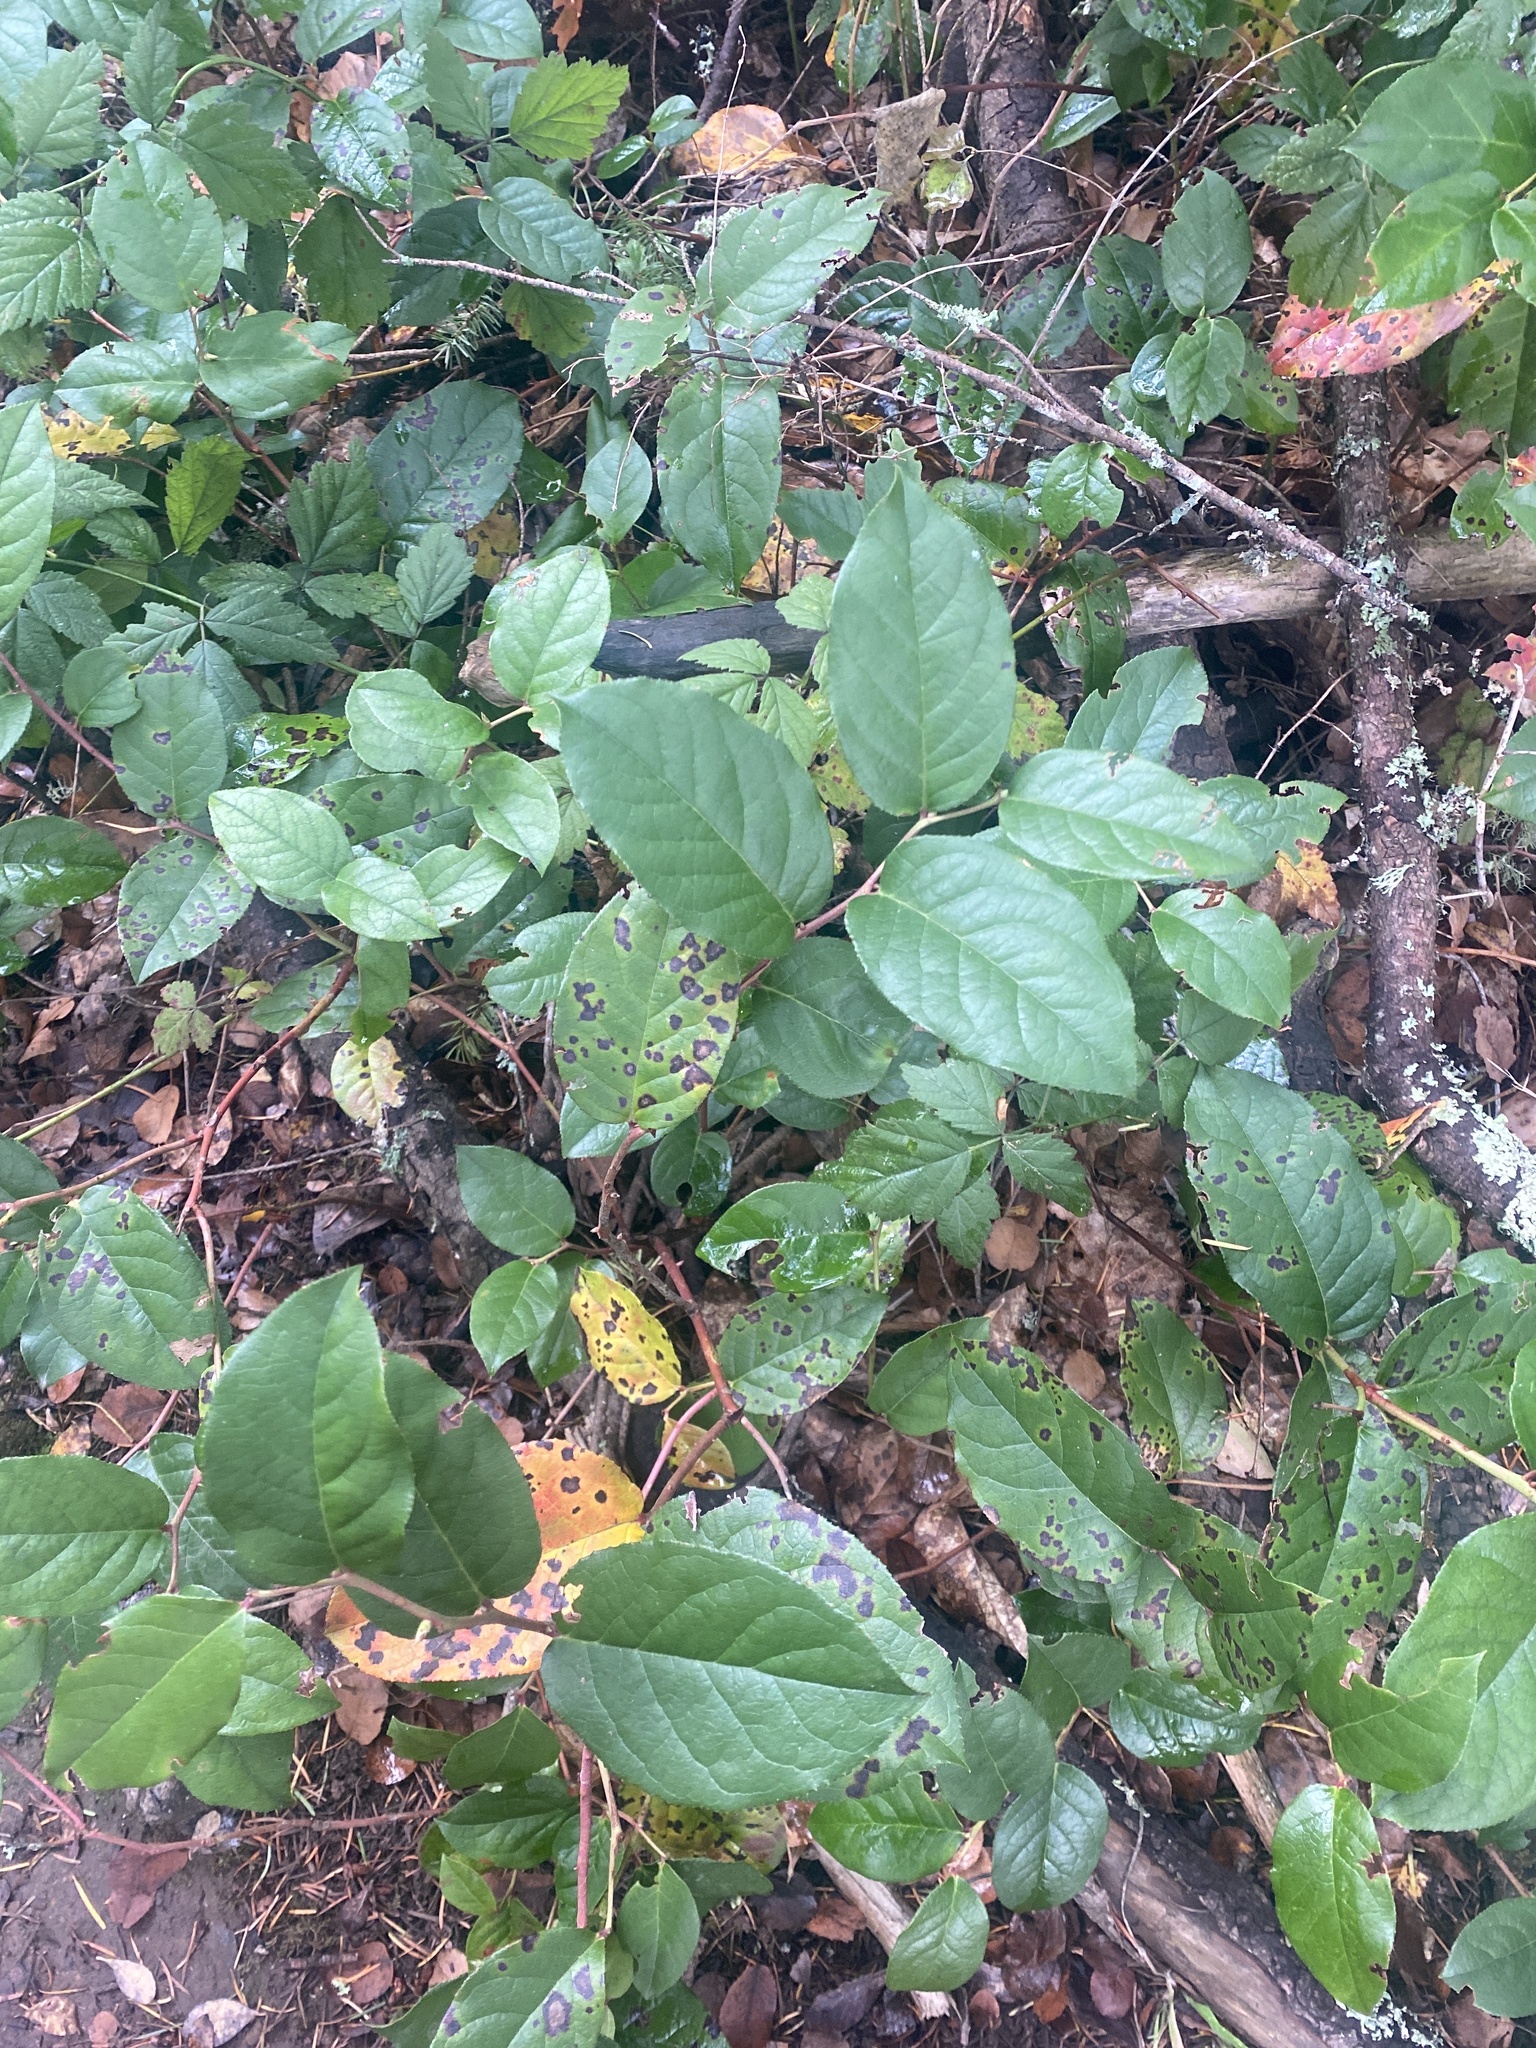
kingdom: Plantae
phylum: Tracheophyta
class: Magnoliopsida
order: Ericales
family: Ericaceae
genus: Gaultheria
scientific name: Gaultheria shallon
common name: Shallon
